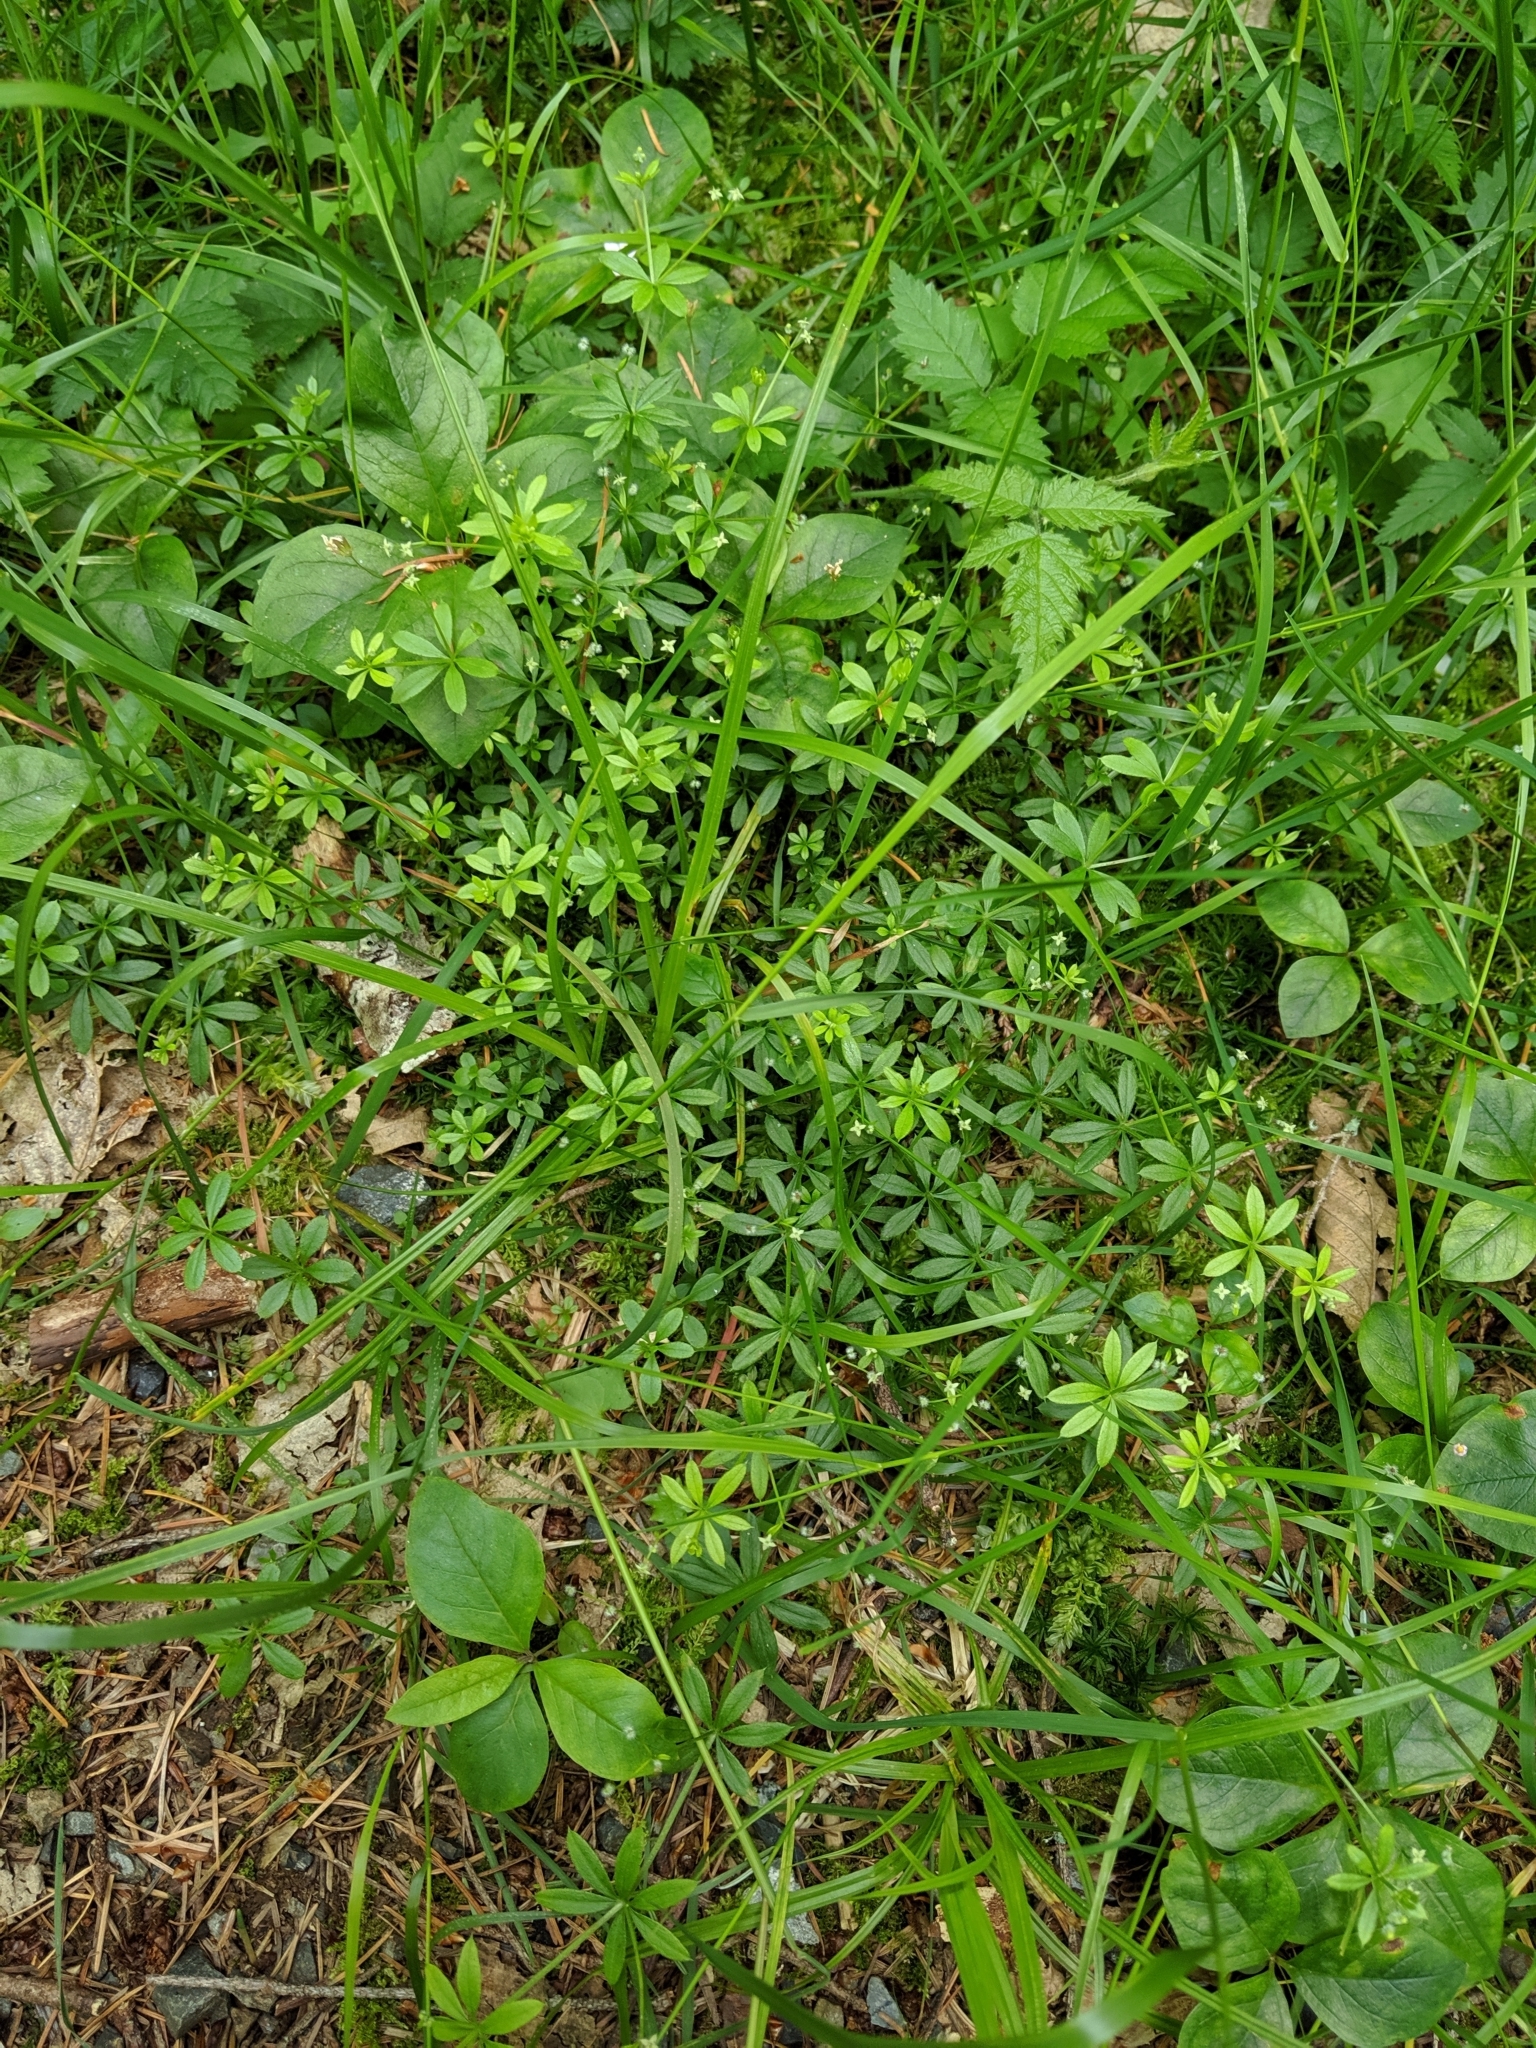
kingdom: Plantae
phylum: Tracheophyta
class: Magnoliopsida
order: Gentianales
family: Rubiaceae
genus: Galium
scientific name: Galium triflorum
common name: Fragrant bedstraw
